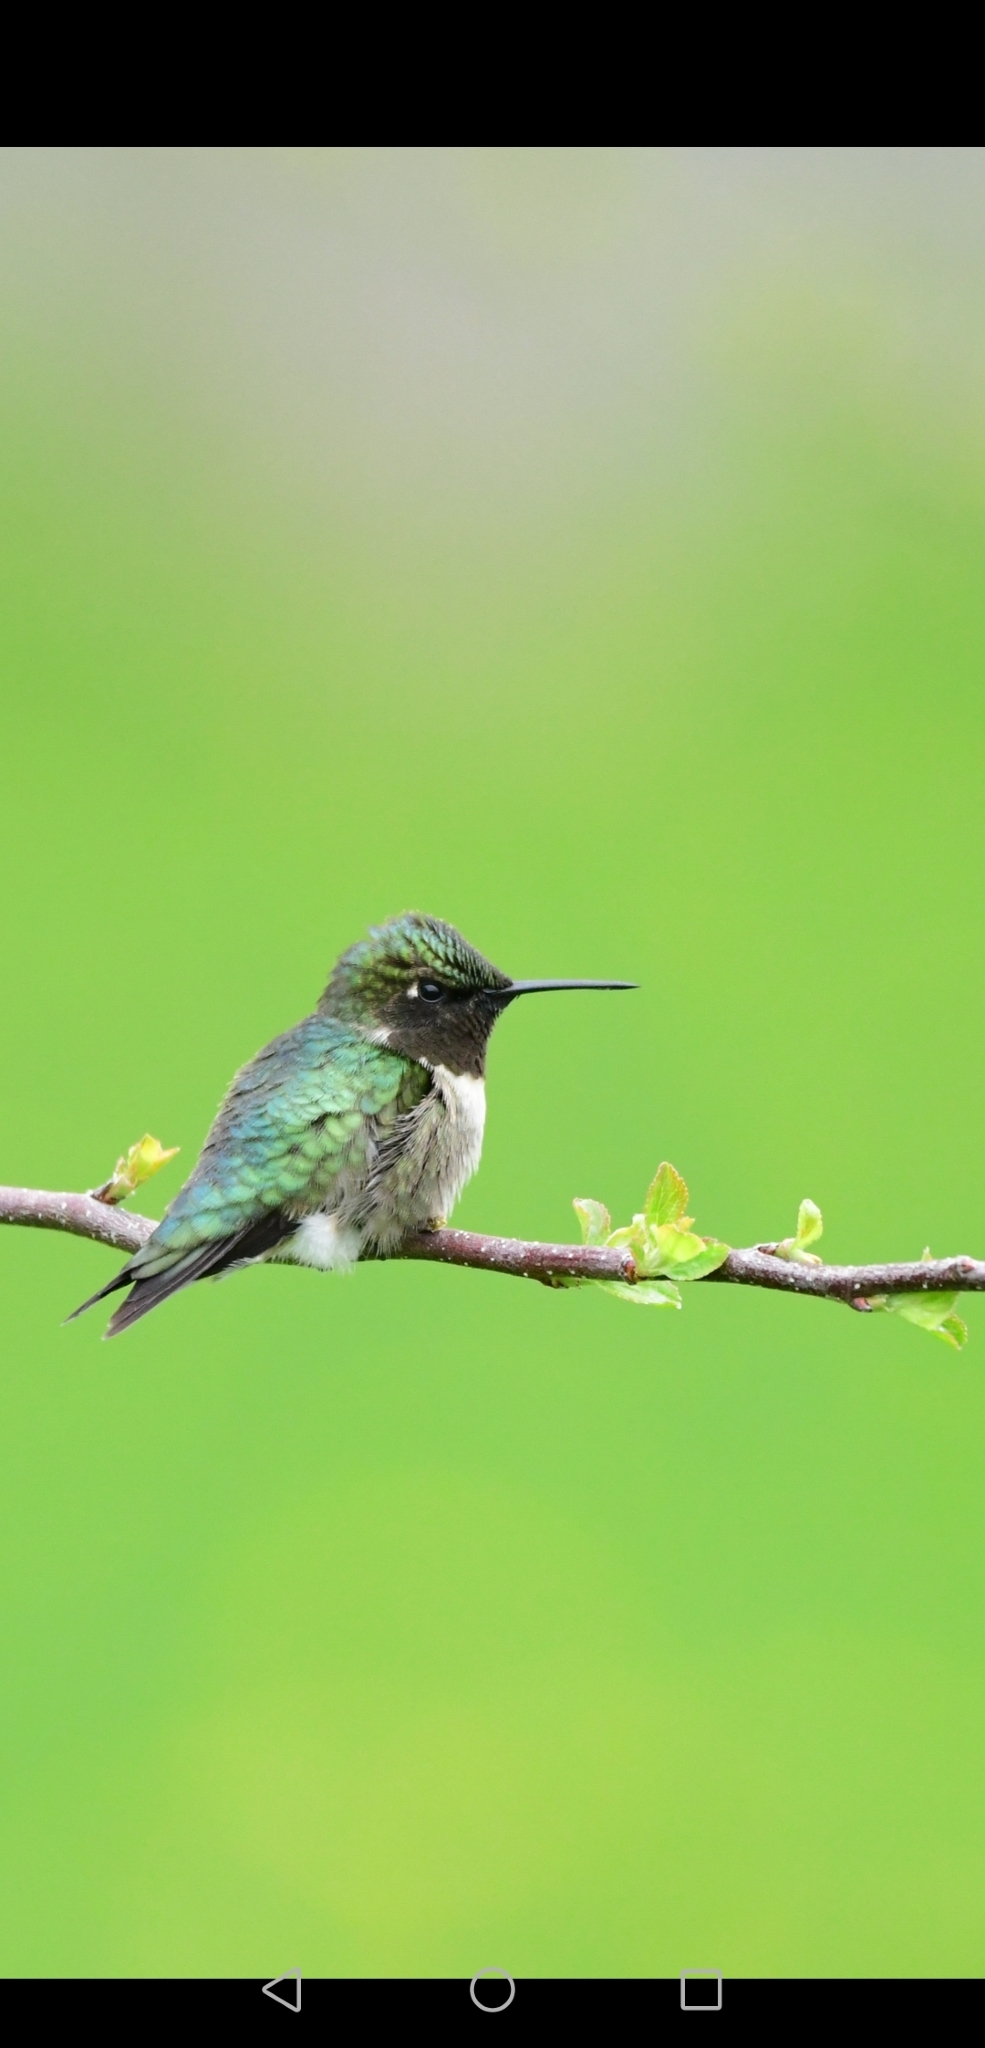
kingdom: Animalia
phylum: Chordata
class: Aves
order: Apodiformes
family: Trochilidae
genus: Archilochus
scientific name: Archilochus colubris
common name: Ruby-throated hummingbird
